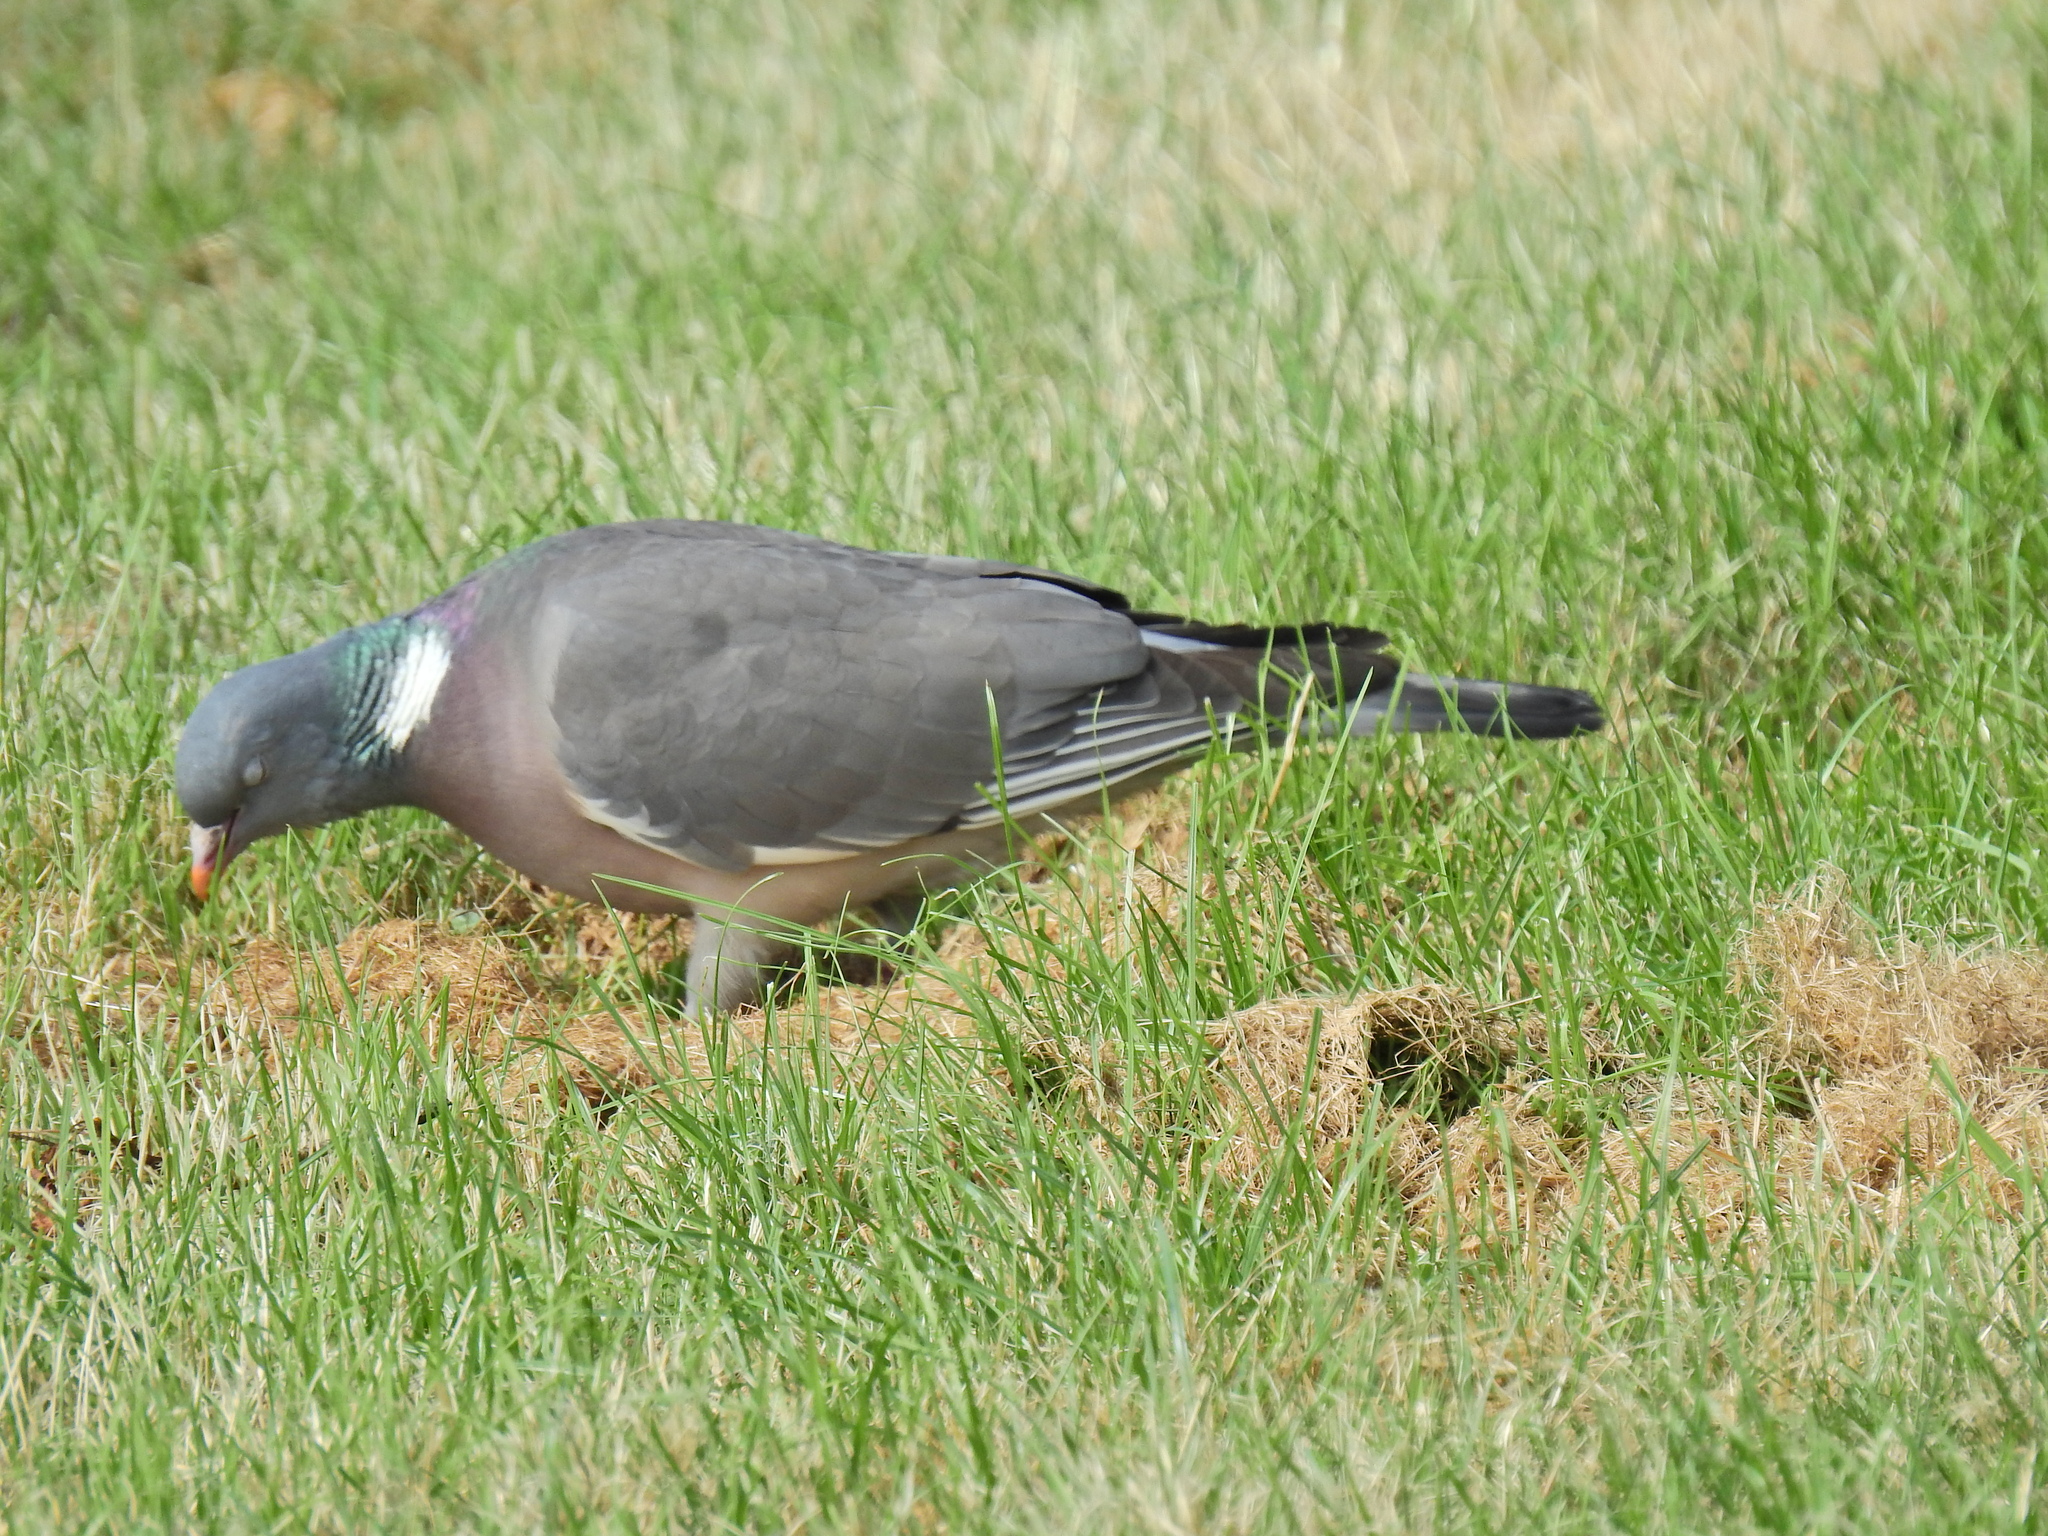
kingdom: Animalia
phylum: Chordata
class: Aves
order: Columbiformes
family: Columbidae
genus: Columba
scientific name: Columba palumbus
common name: Common wood pigeon
